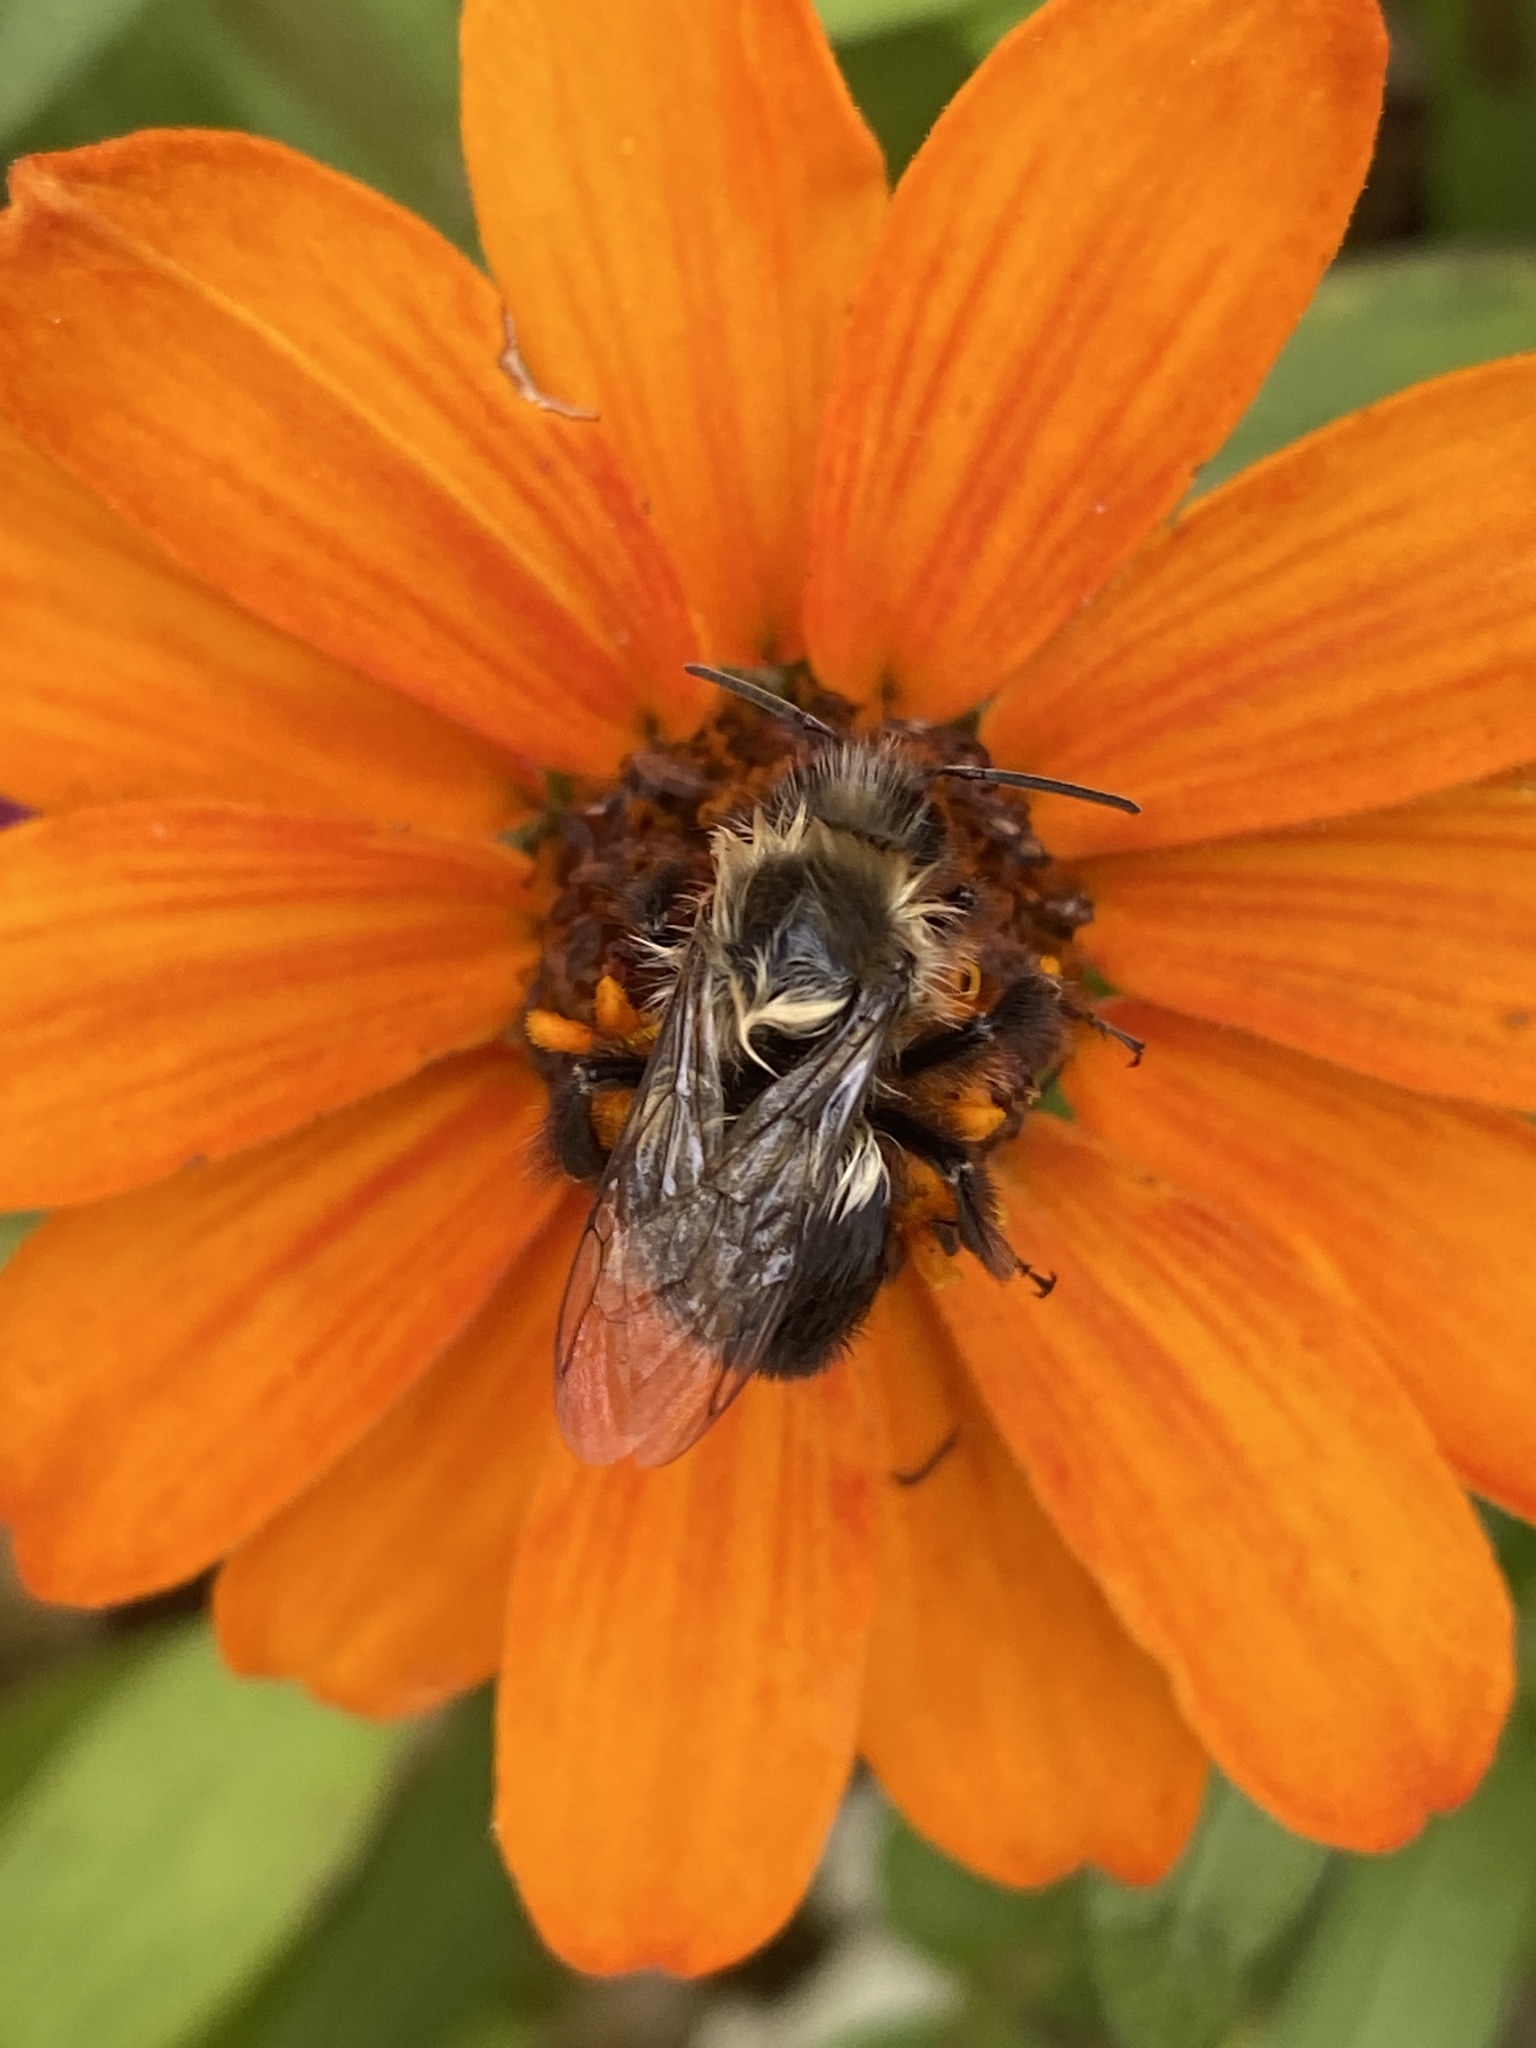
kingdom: Animalia
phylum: Arthropoda
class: Insecta
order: Hymenoptera
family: Apidae
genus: Bombus
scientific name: Bombus impatiens
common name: Common eastern bumble bee
